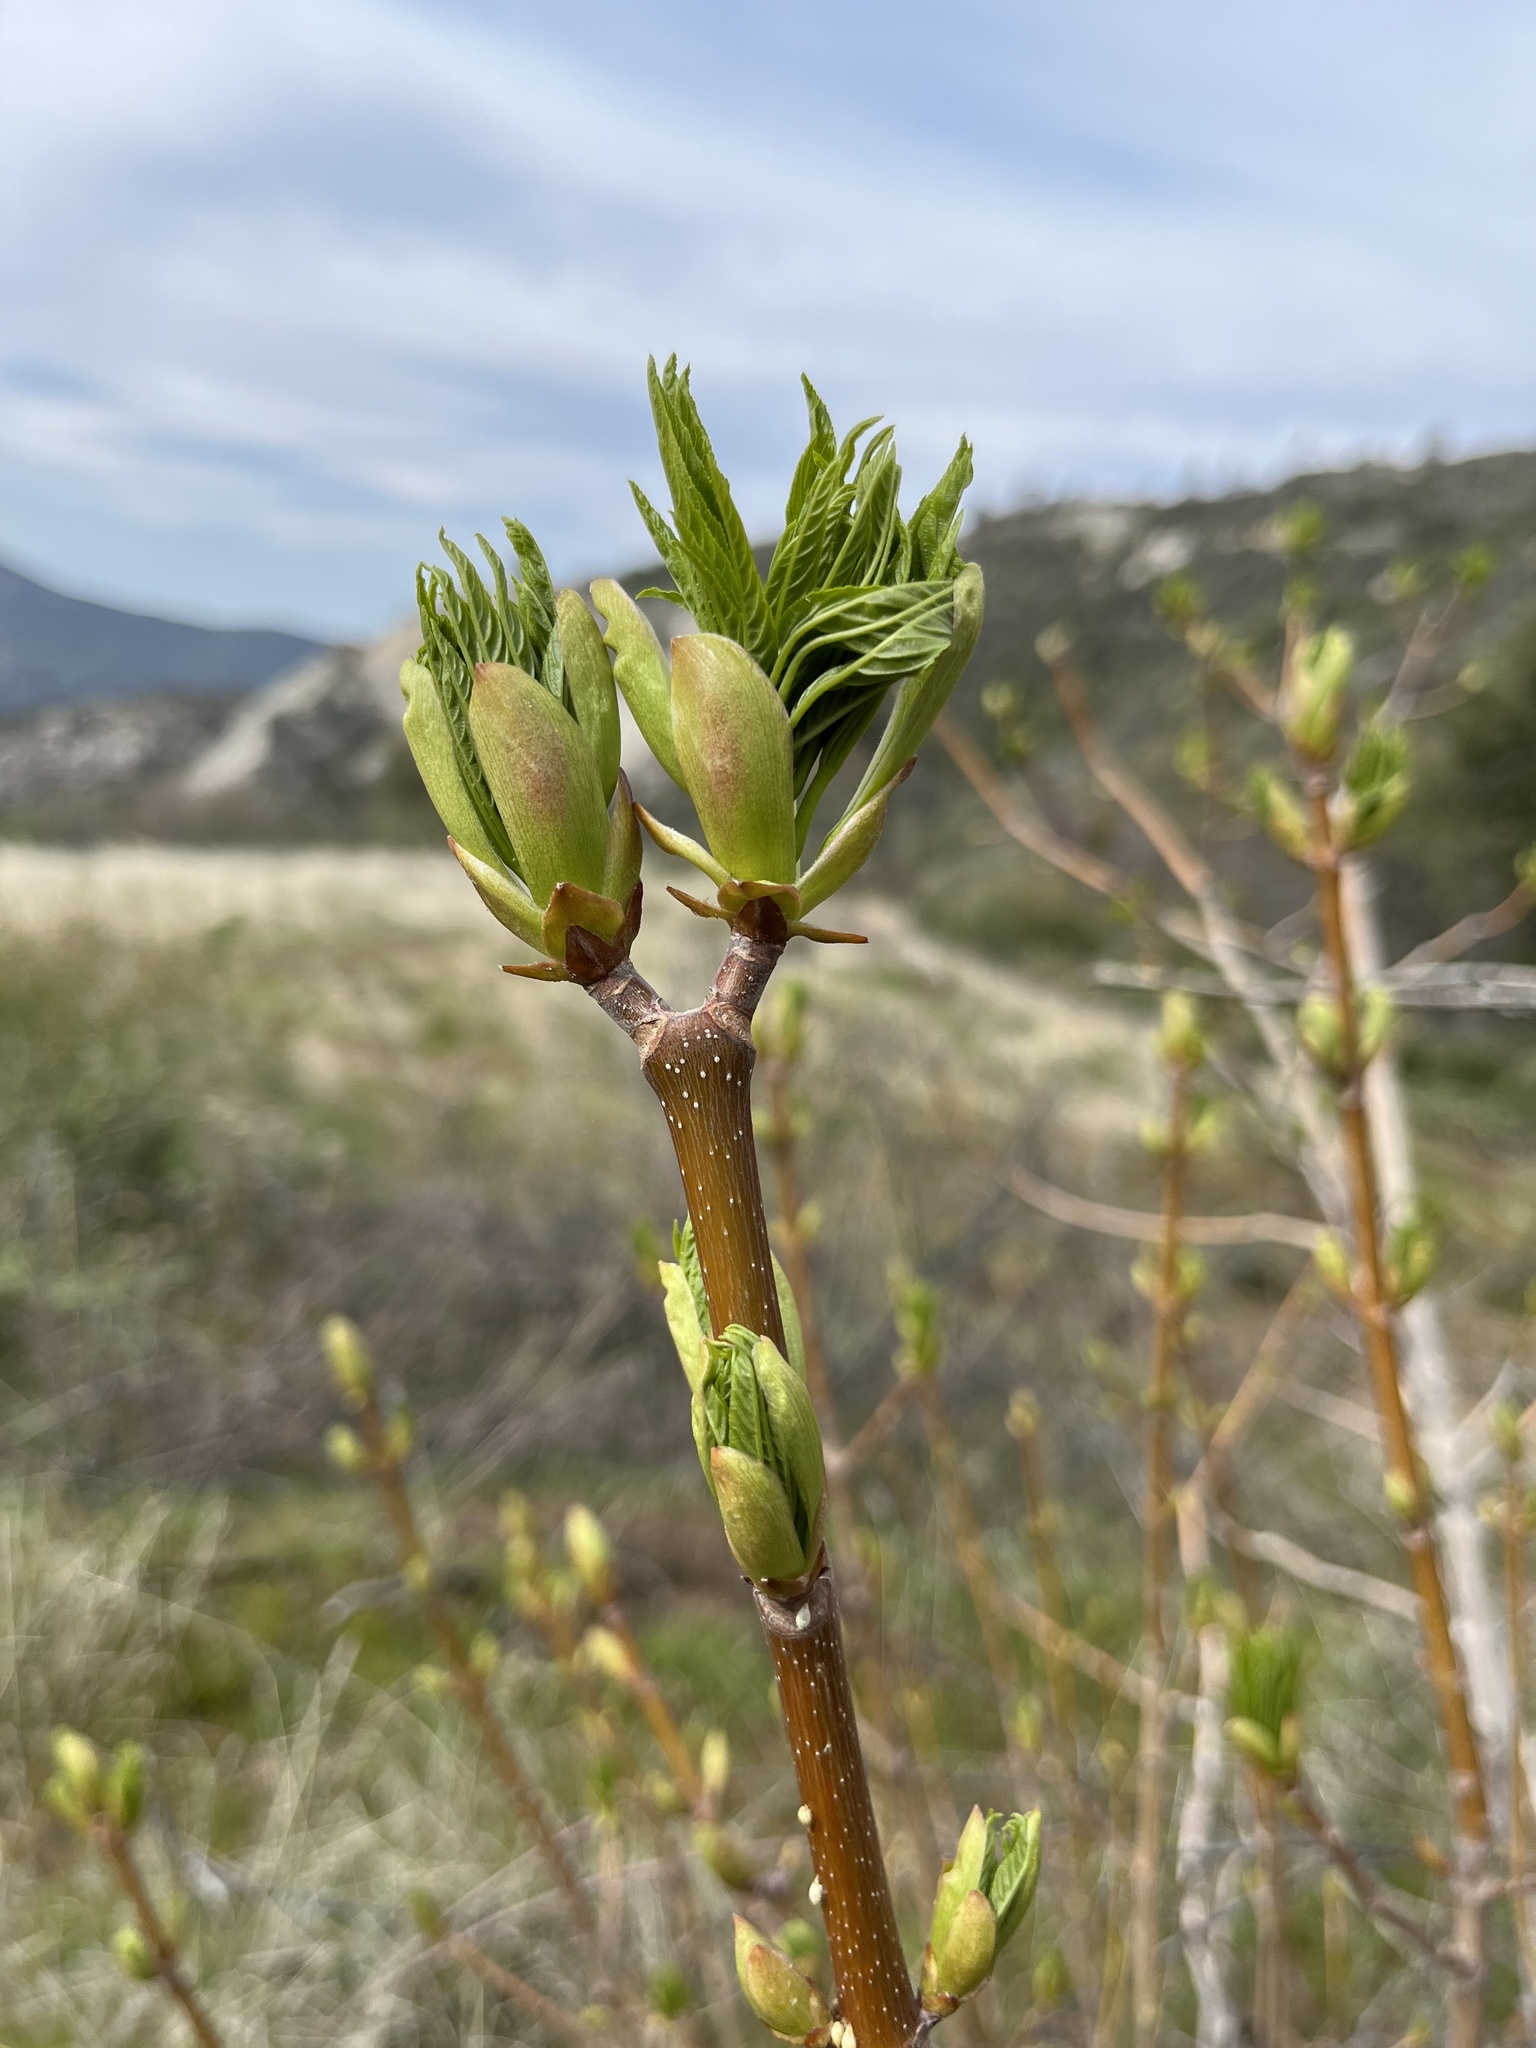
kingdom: Plantae
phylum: Tracheophyta
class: Magnoliopsida
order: Sapindales
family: Sapindaceae
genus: Aesculus
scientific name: Aesculus californica
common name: California buckeye
